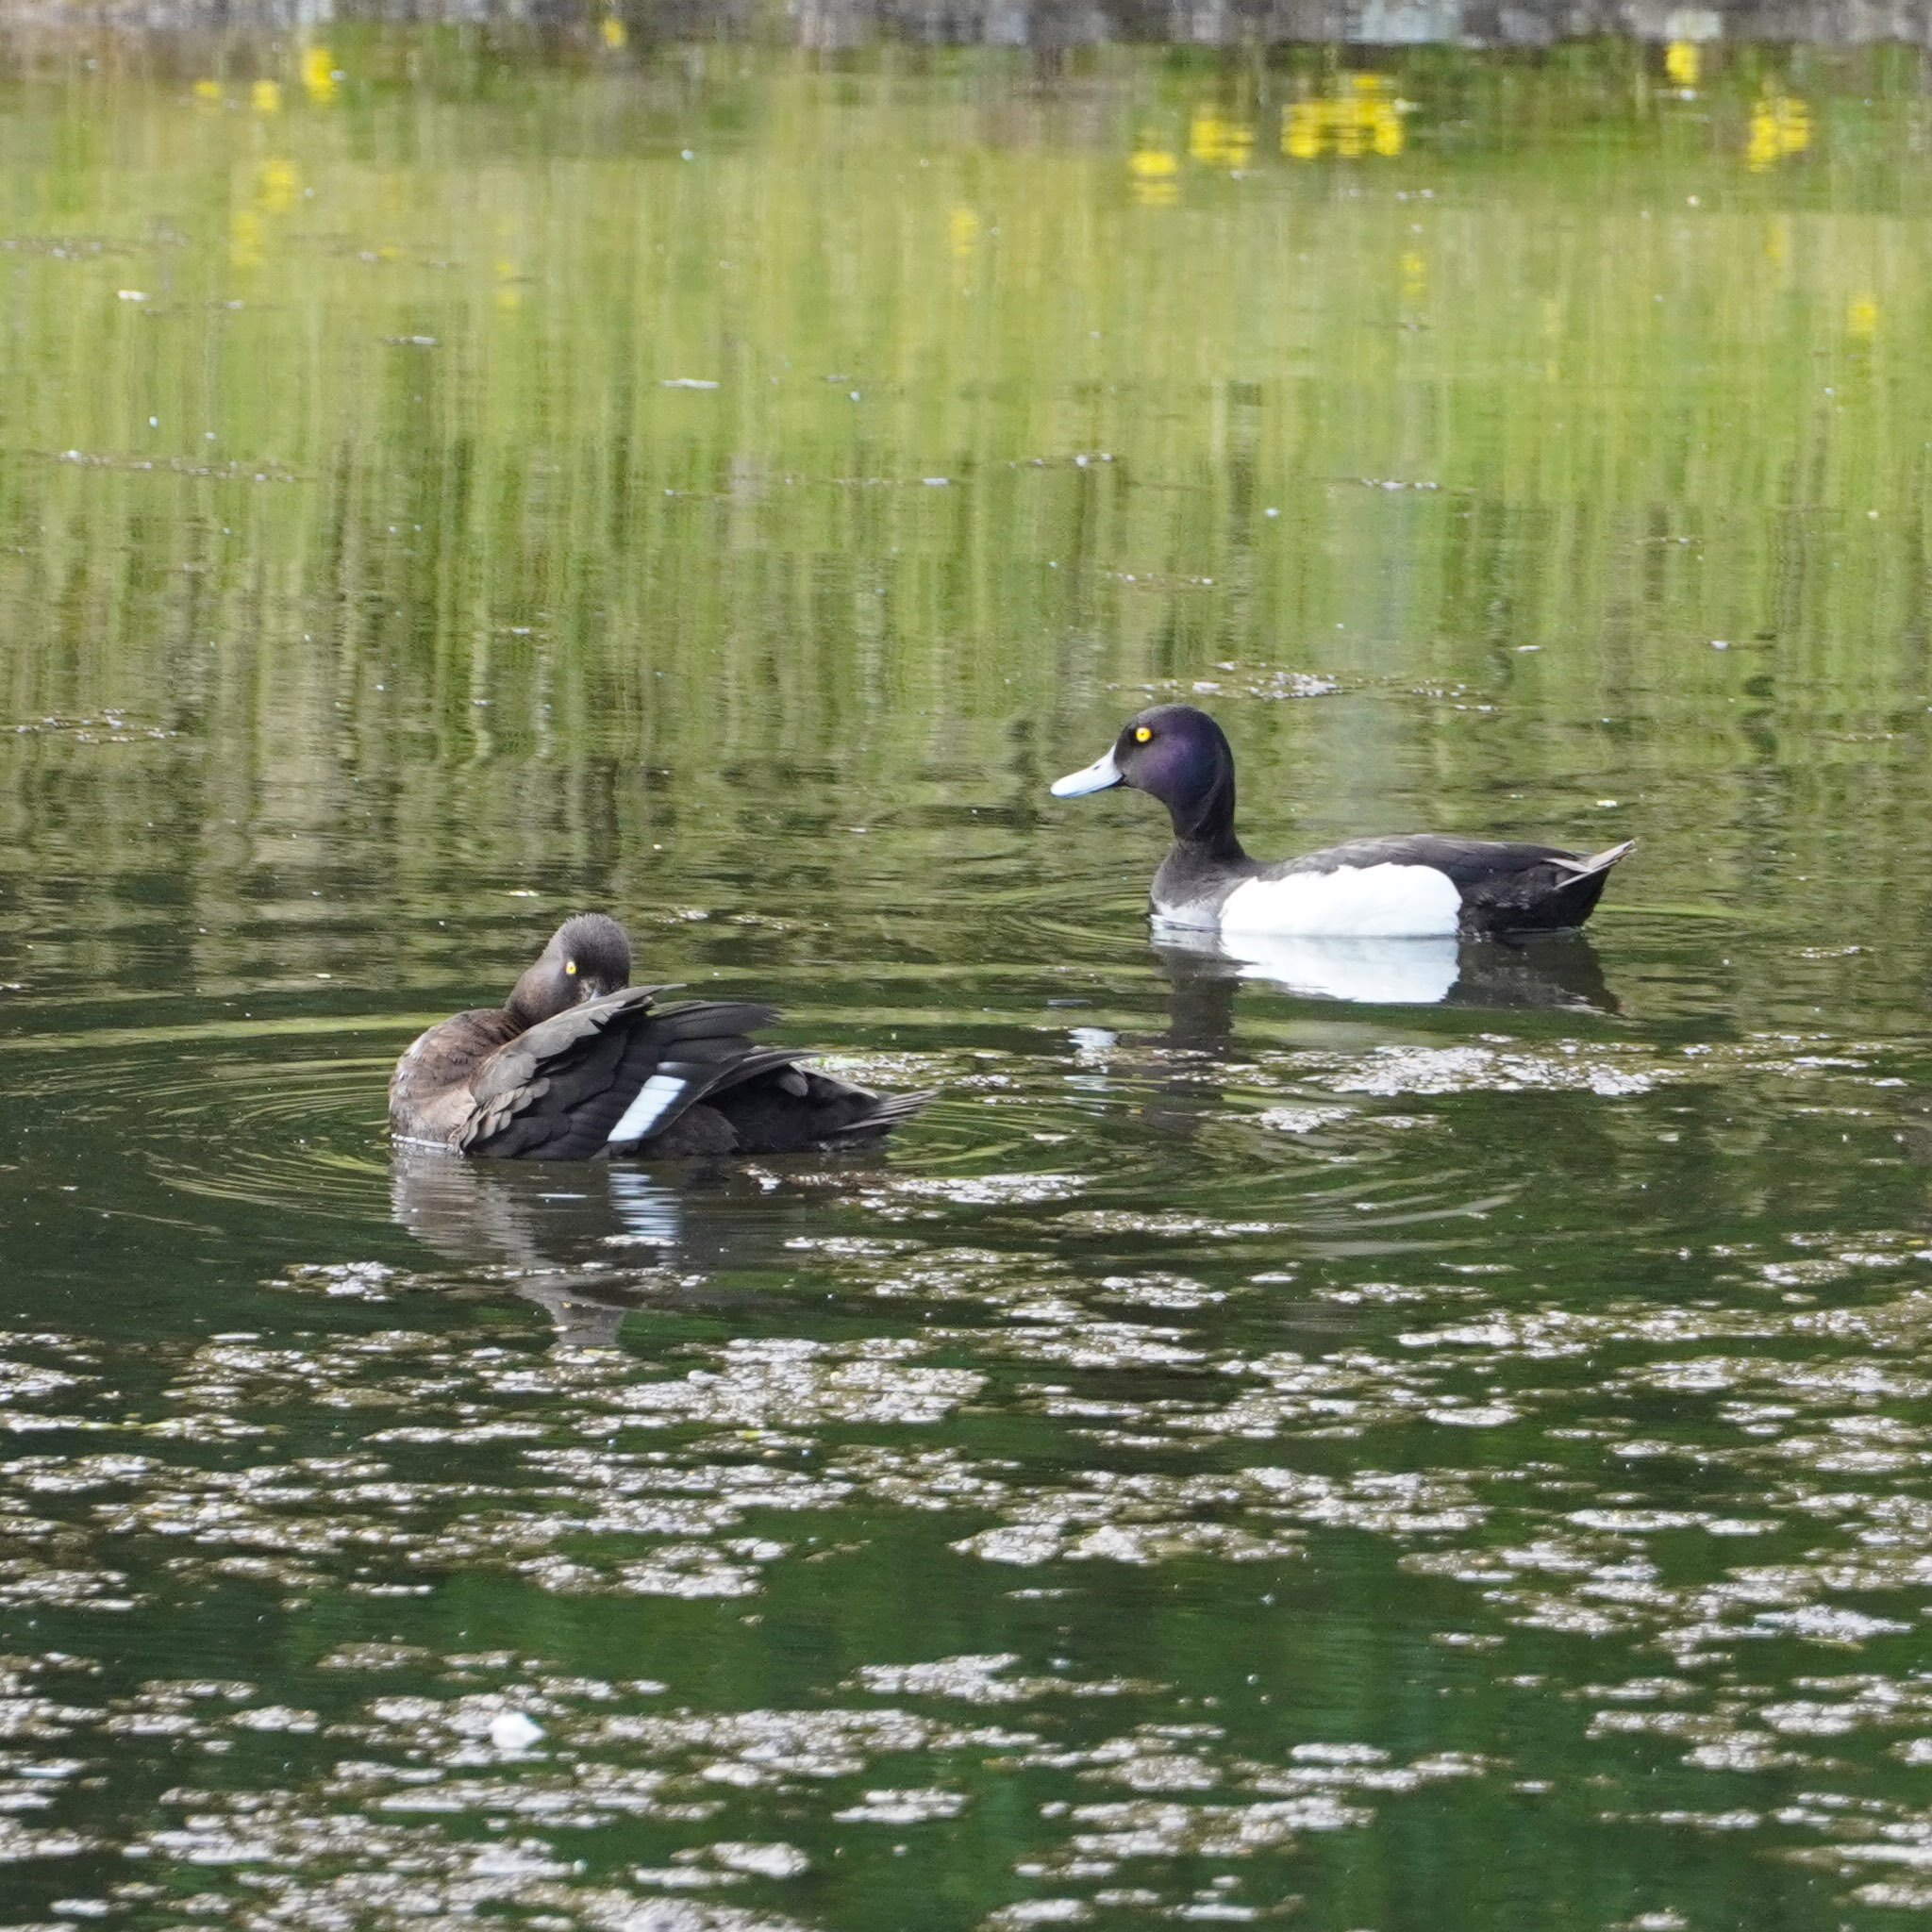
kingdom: Animalia
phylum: Chordata
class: Aves
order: Anseriformes
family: Anatidae
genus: Aythya
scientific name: Aythya fuligula
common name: Tufted duck
